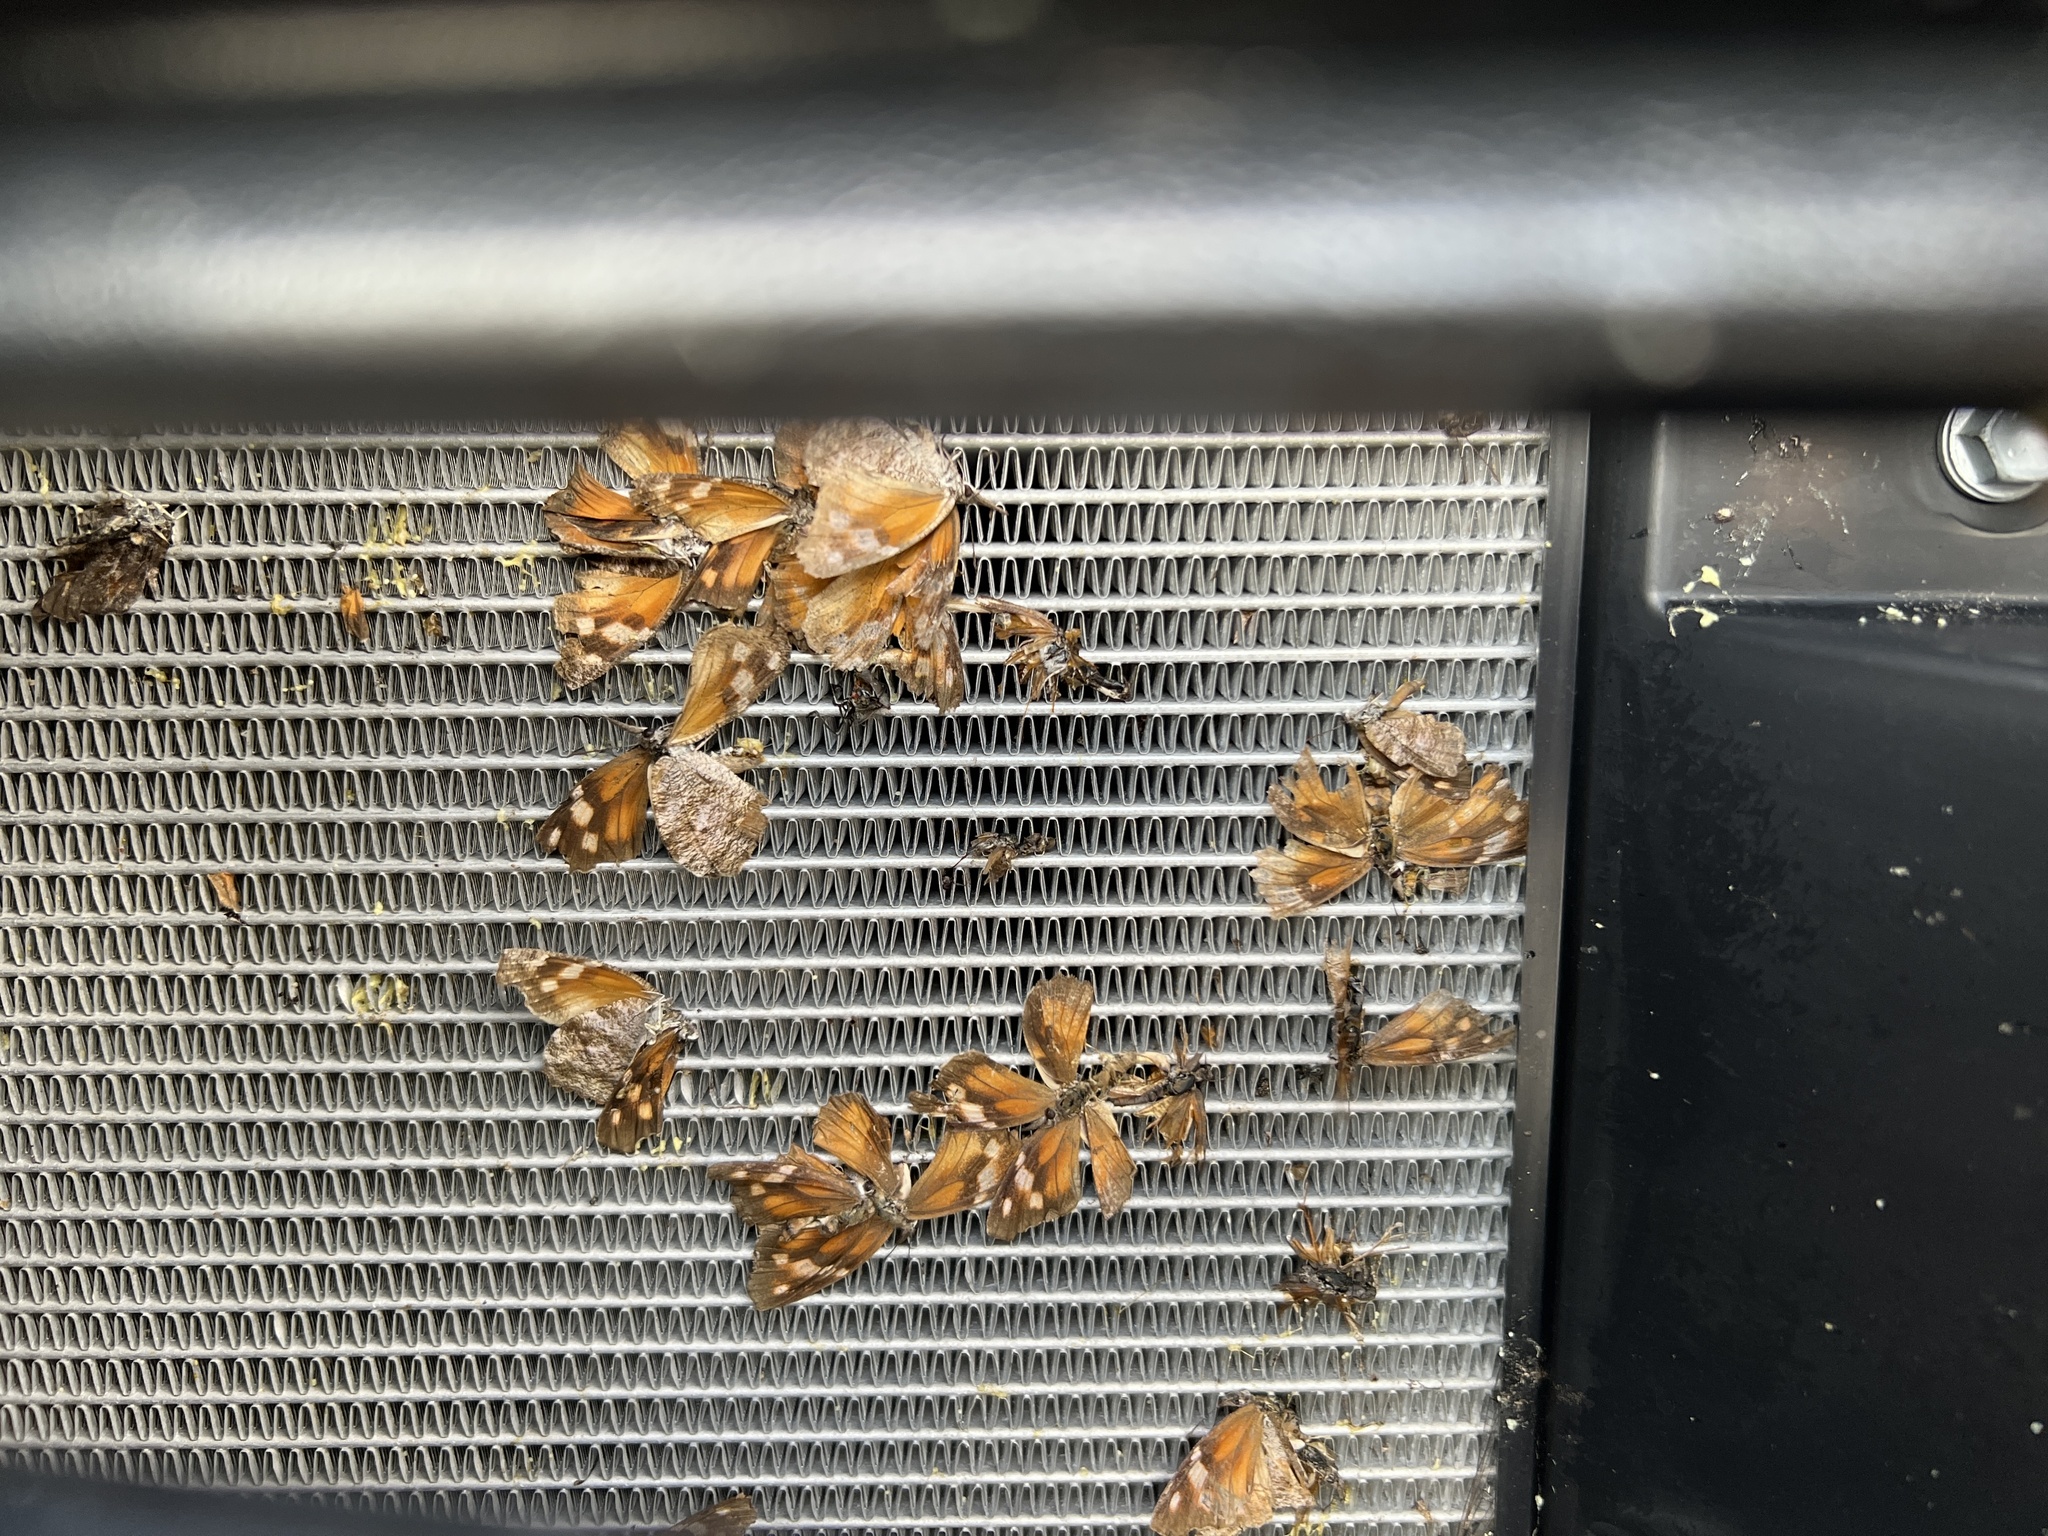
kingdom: Animalia
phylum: Arthropoda
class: Insecta
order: Lepidoptera
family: Nymphalidae
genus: Libytheana
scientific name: Libytheana carinenta
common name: American snout
